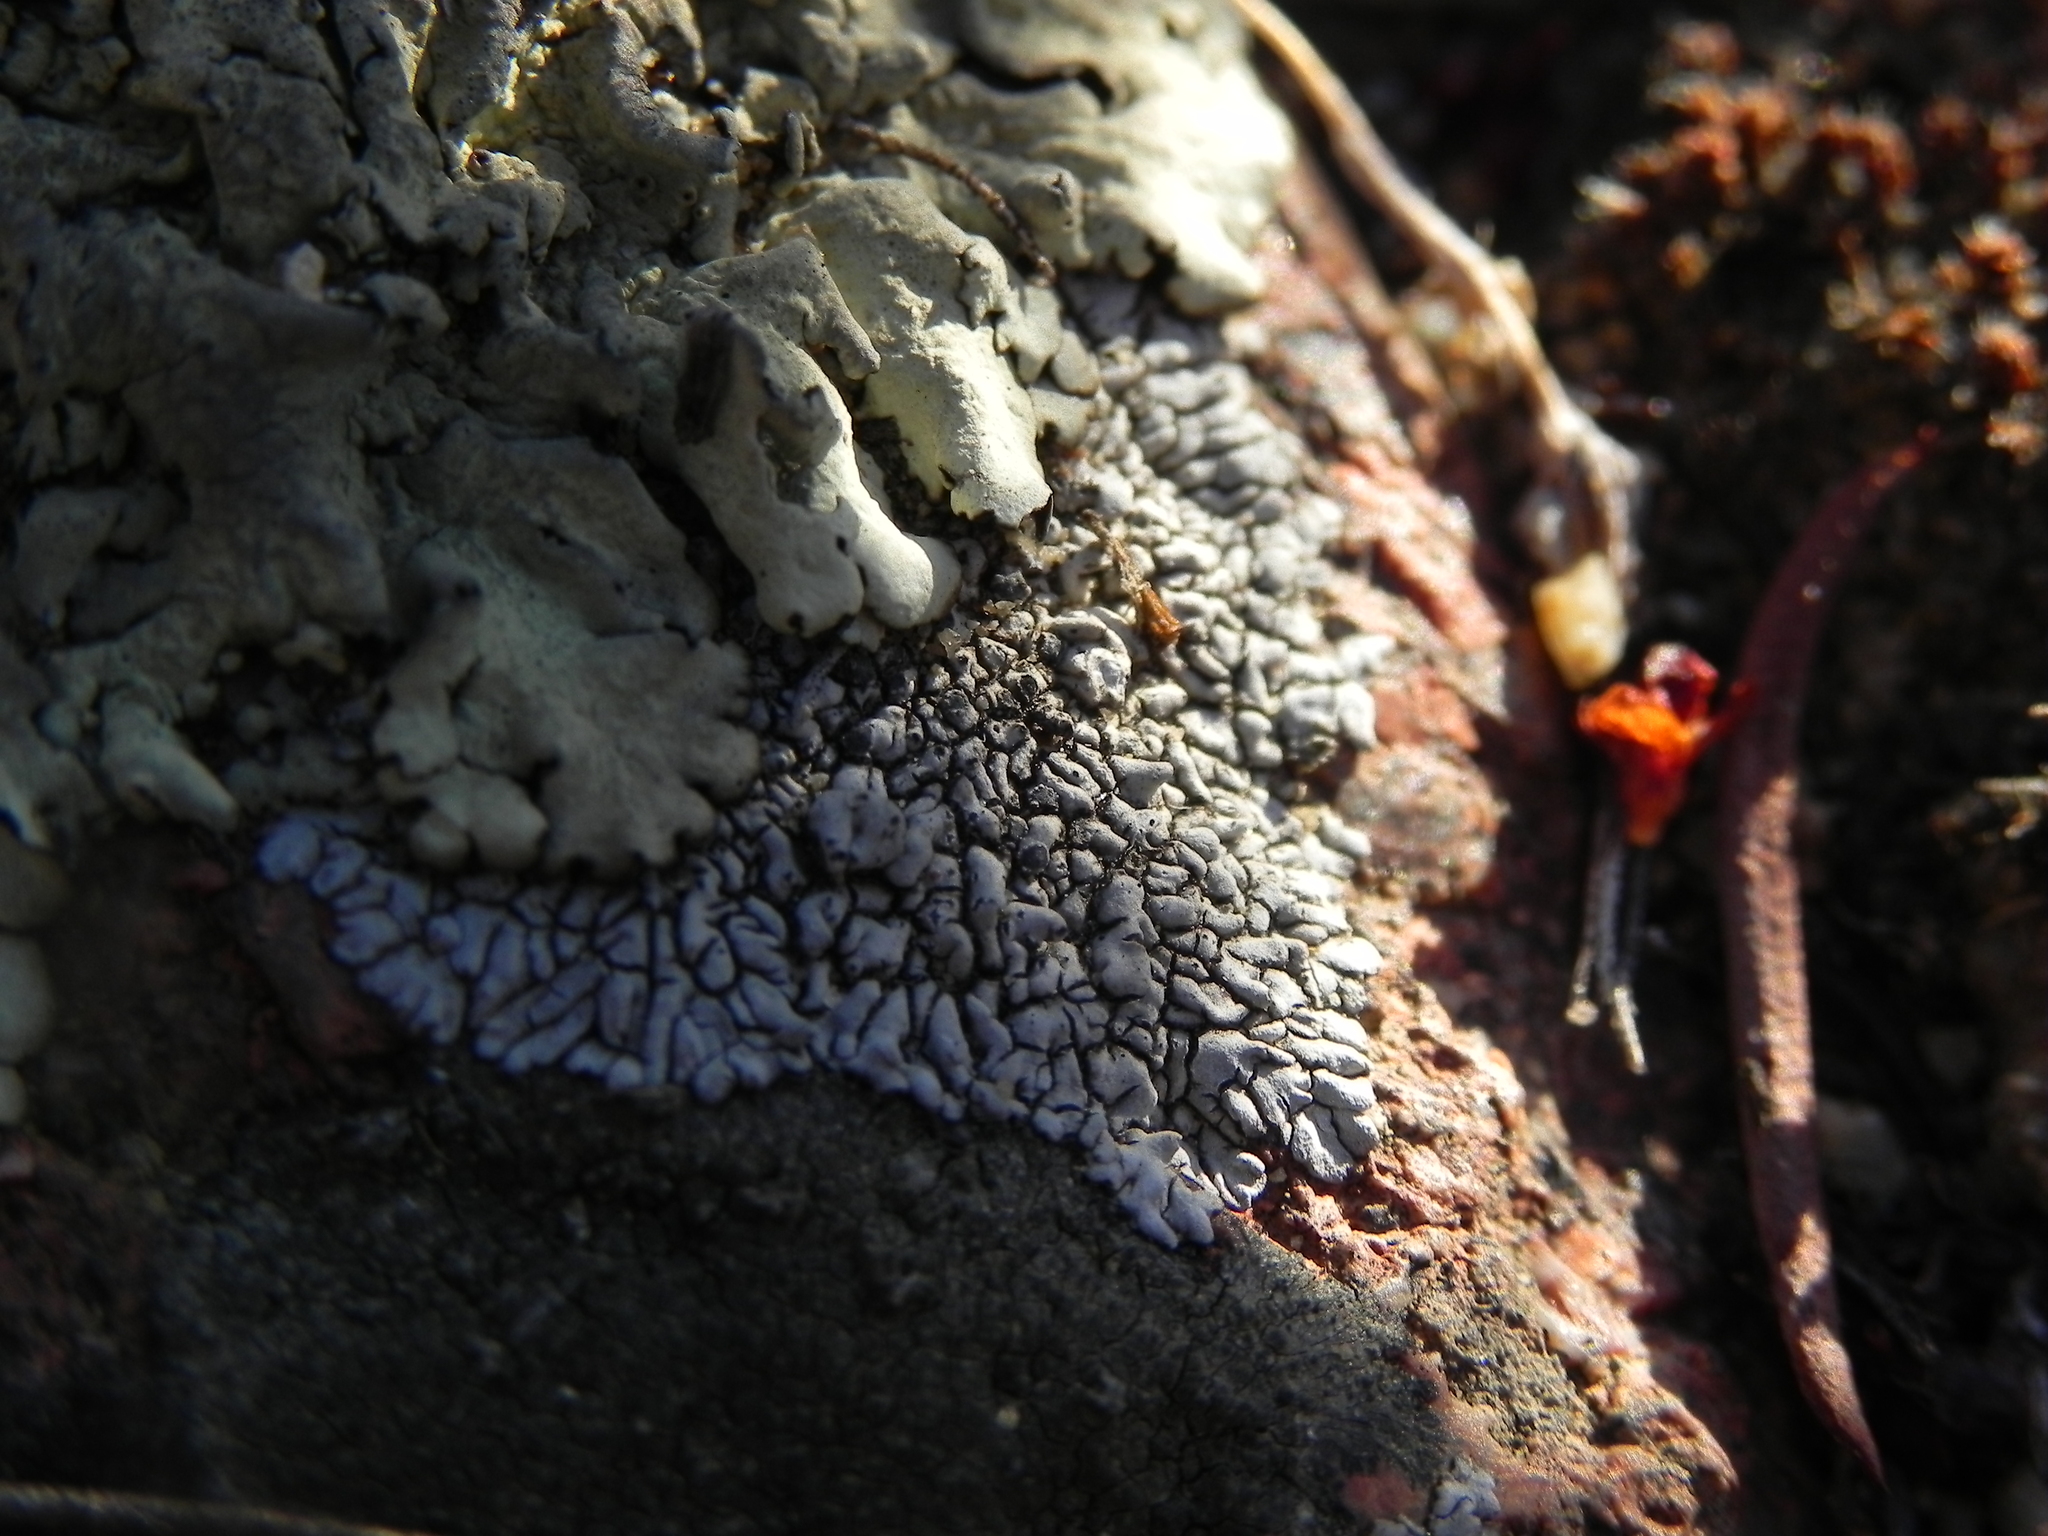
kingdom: Fungi
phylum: Ascomycota
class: Lecanoromycetes
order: Caliciales
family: Caliciaceae
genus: Dimelaena
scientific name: Dimelaena radiata
